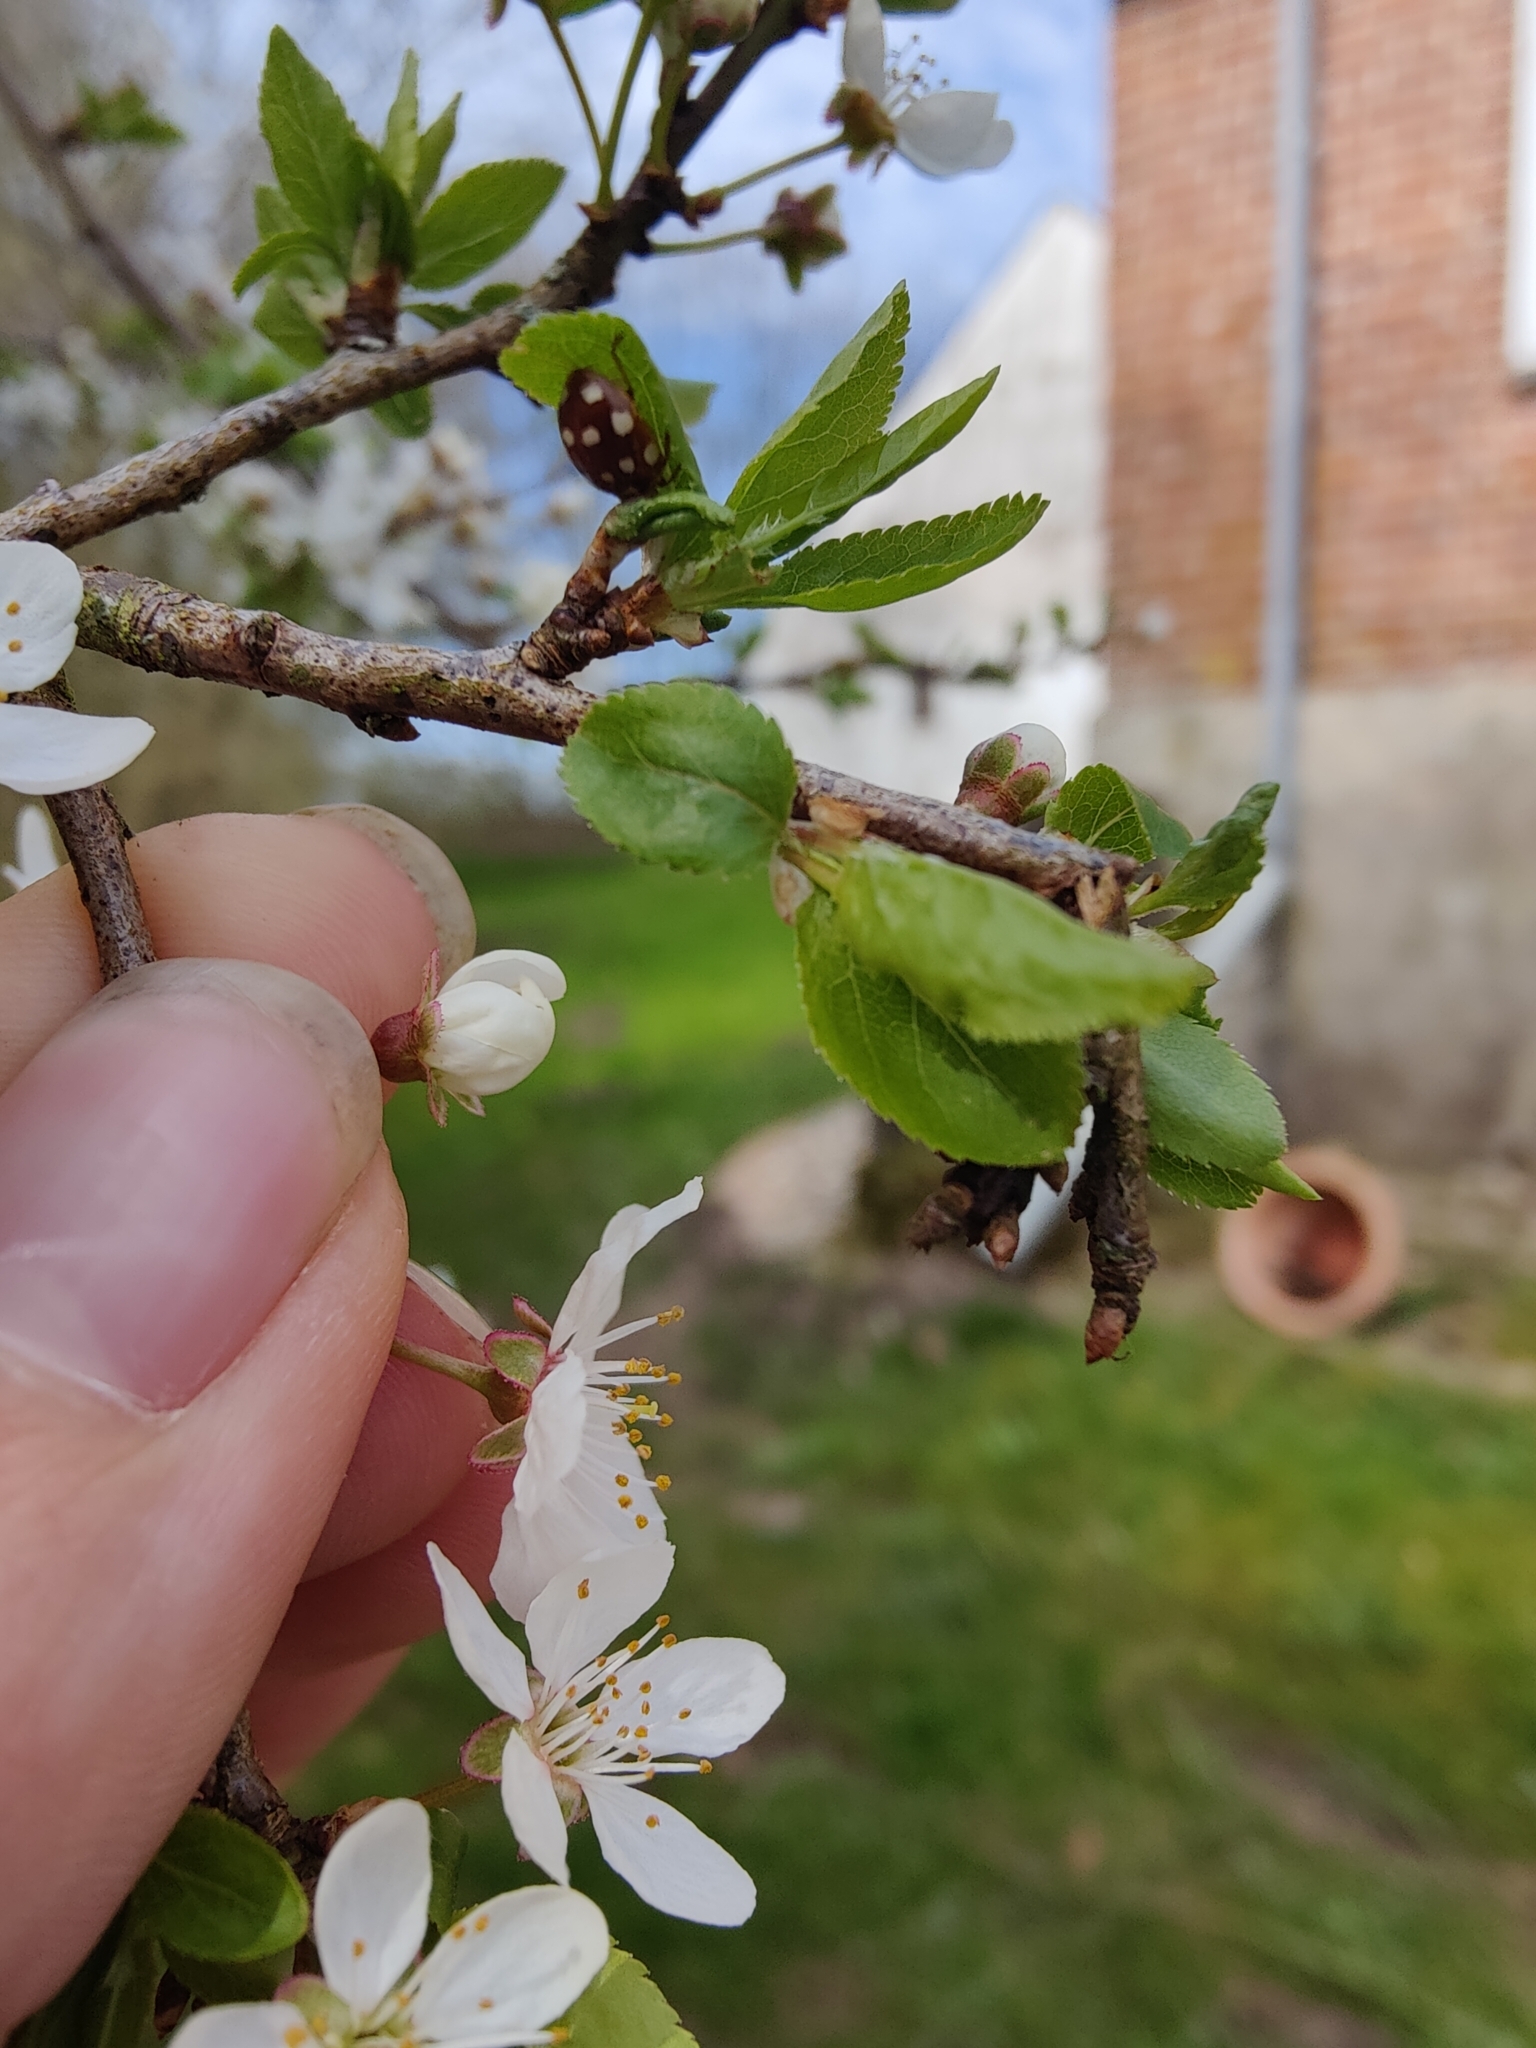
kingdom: Animalia
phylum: Arthropoda
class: Insecta
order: Coleoptera
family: Coccinellidae
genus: Calvia
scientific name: Calvia quatuordecimguttata
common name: Cream-spot ladybird
